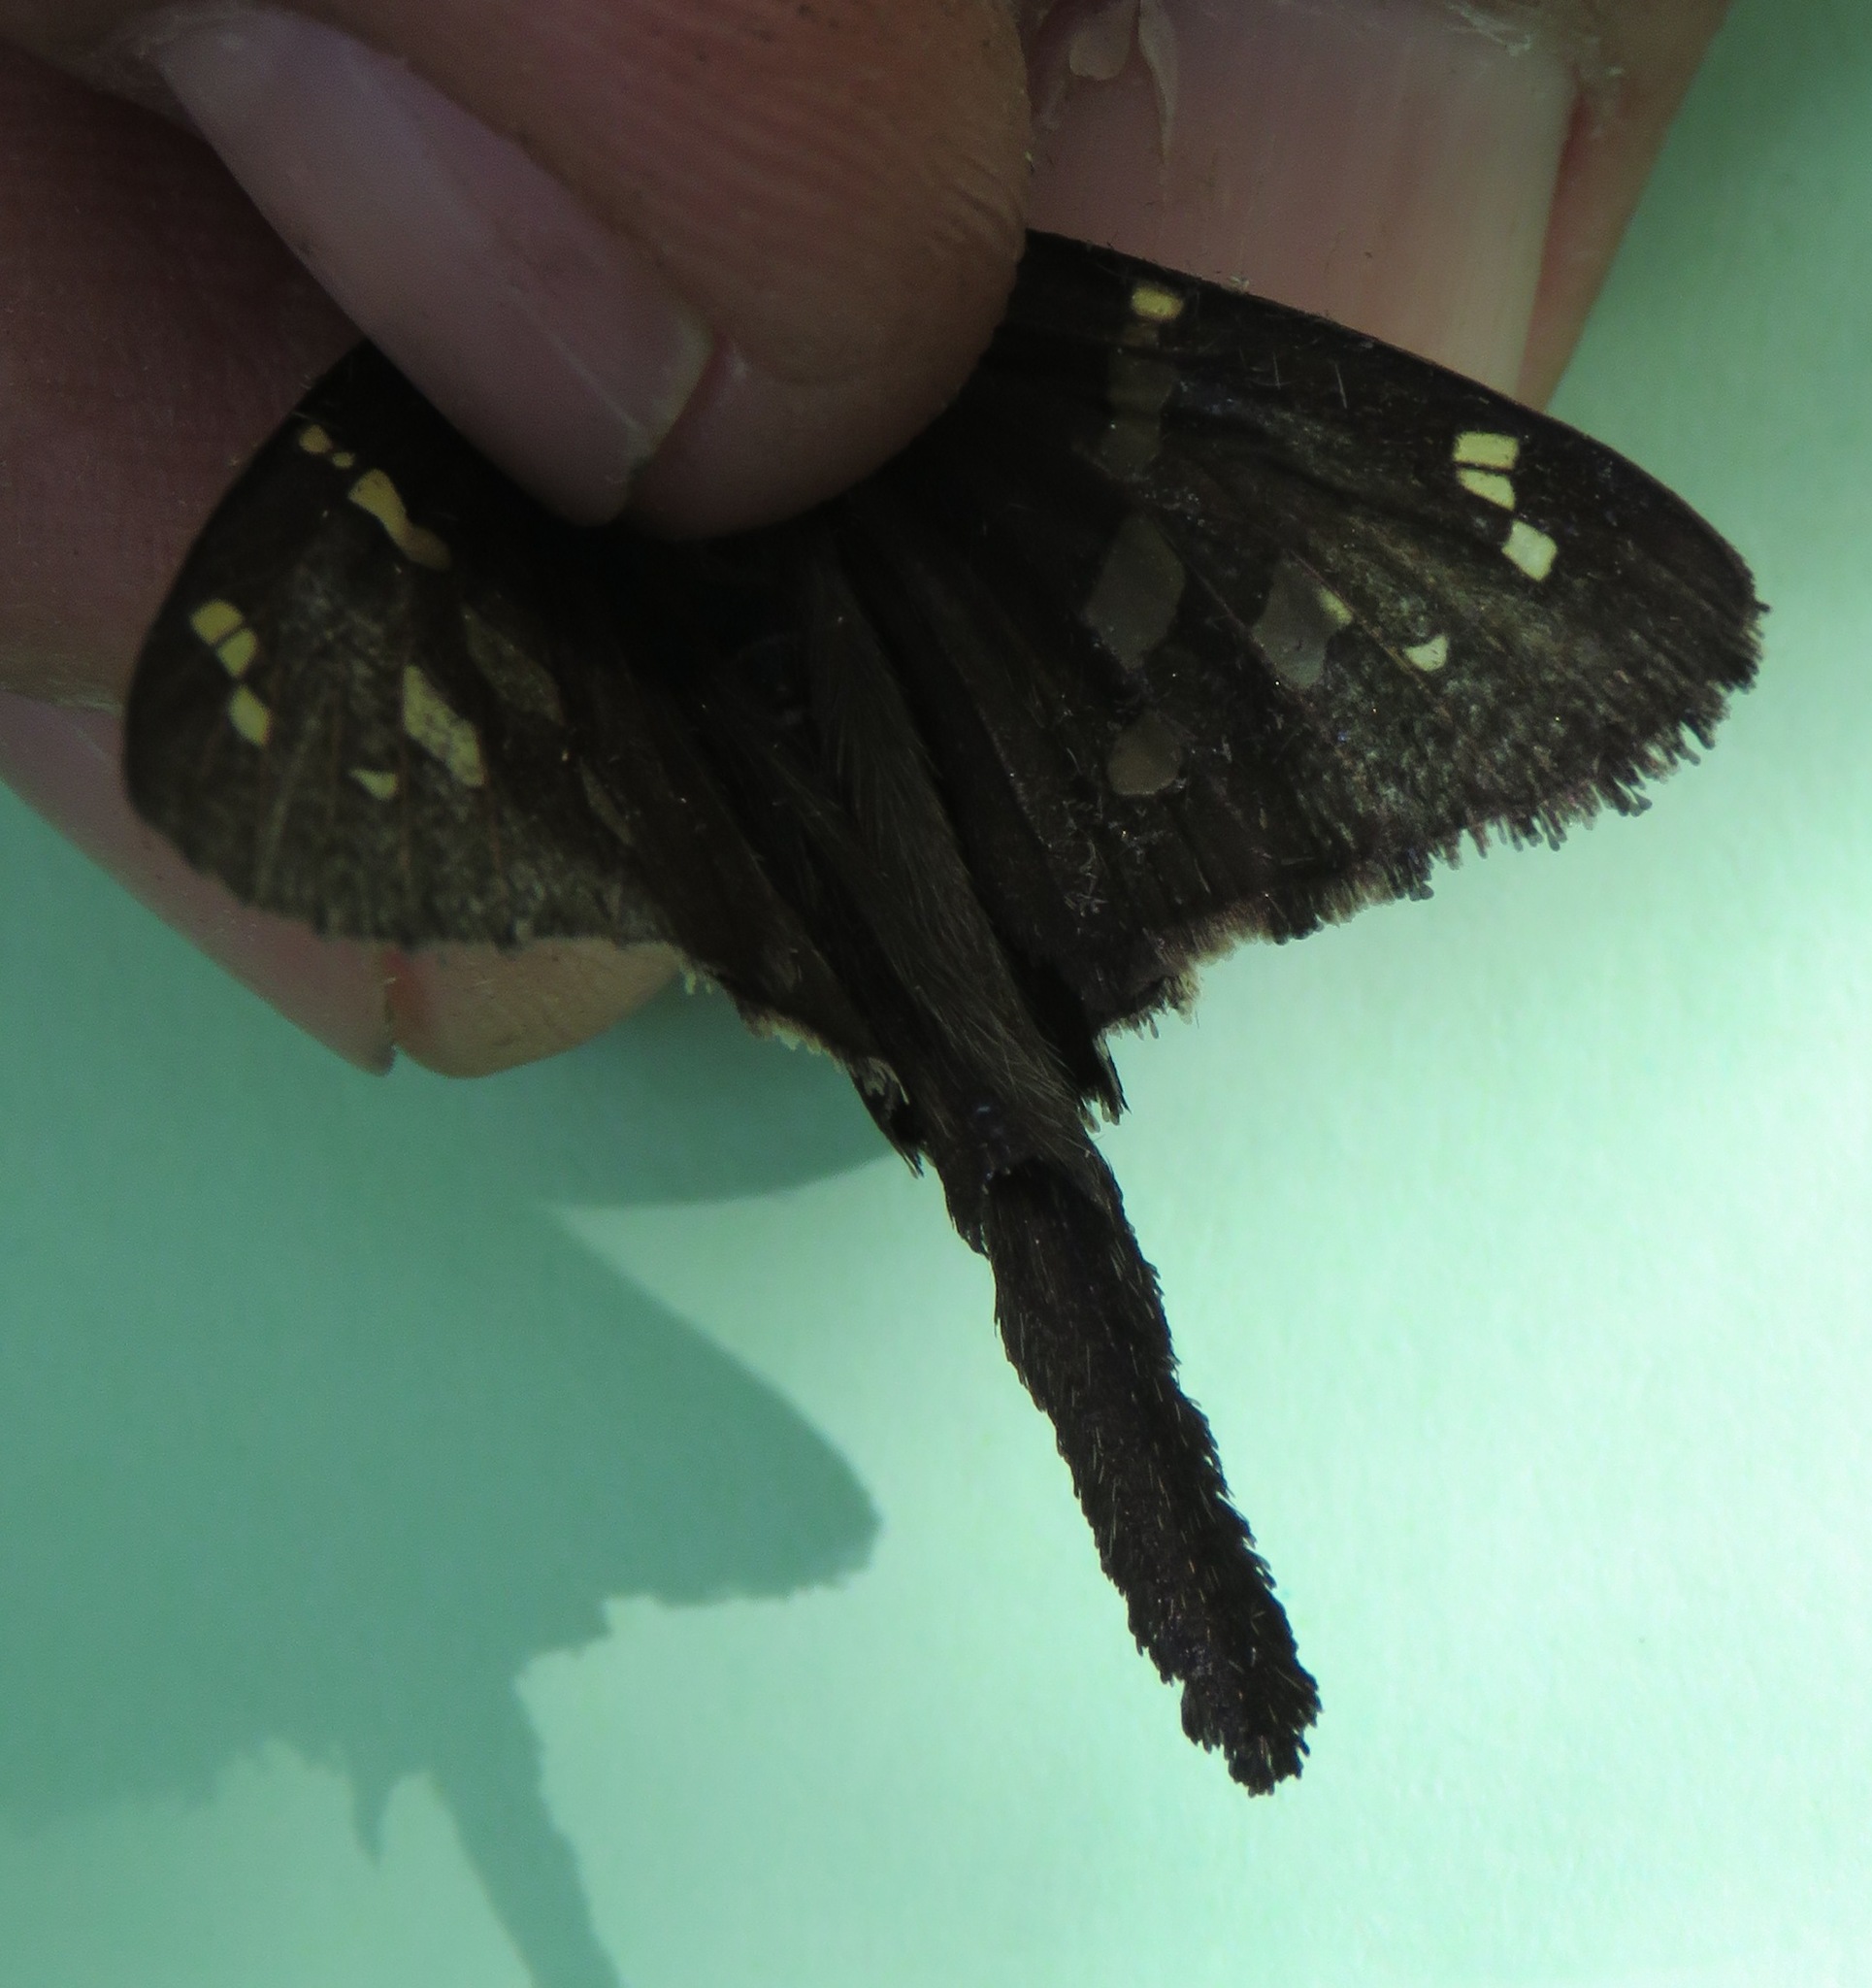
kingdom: Animalia
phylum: Arthropoda
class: Insecta
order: Lepidoptera
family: Hesperiidae
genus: Thorybes
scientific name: Thorybes
